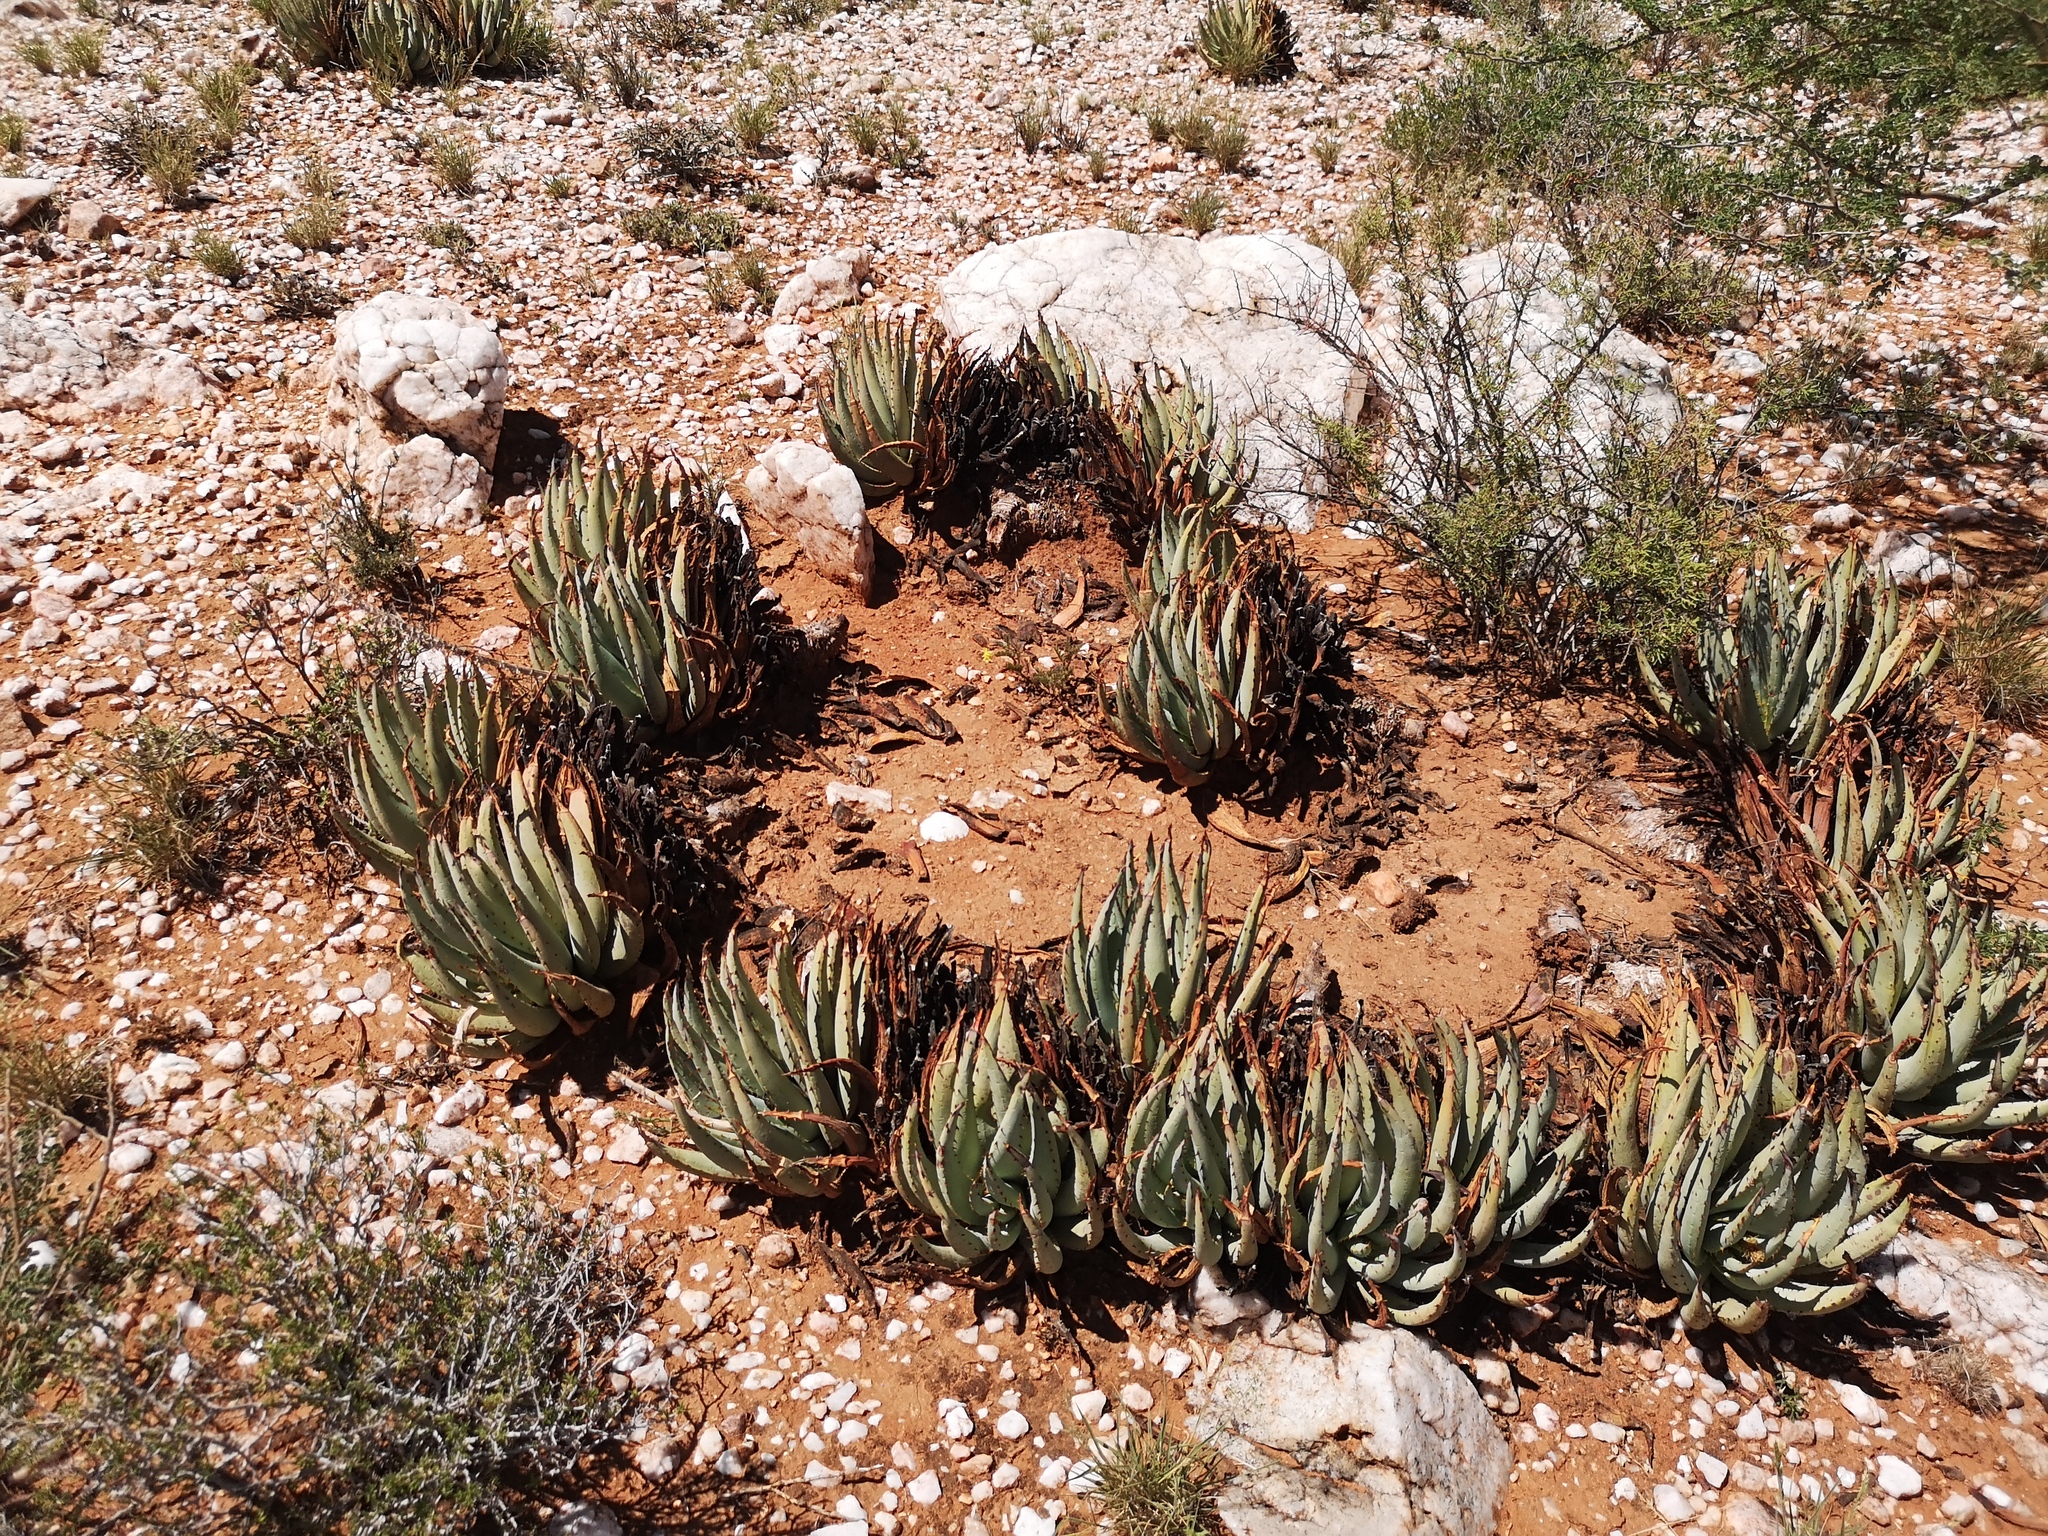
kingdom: Plantae
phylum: Tracheophyta
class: Liliopsida
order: Asparagales
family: Asphodelaceae
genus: Aloe
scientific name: Aloe claviflora
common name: Cannon aloe
